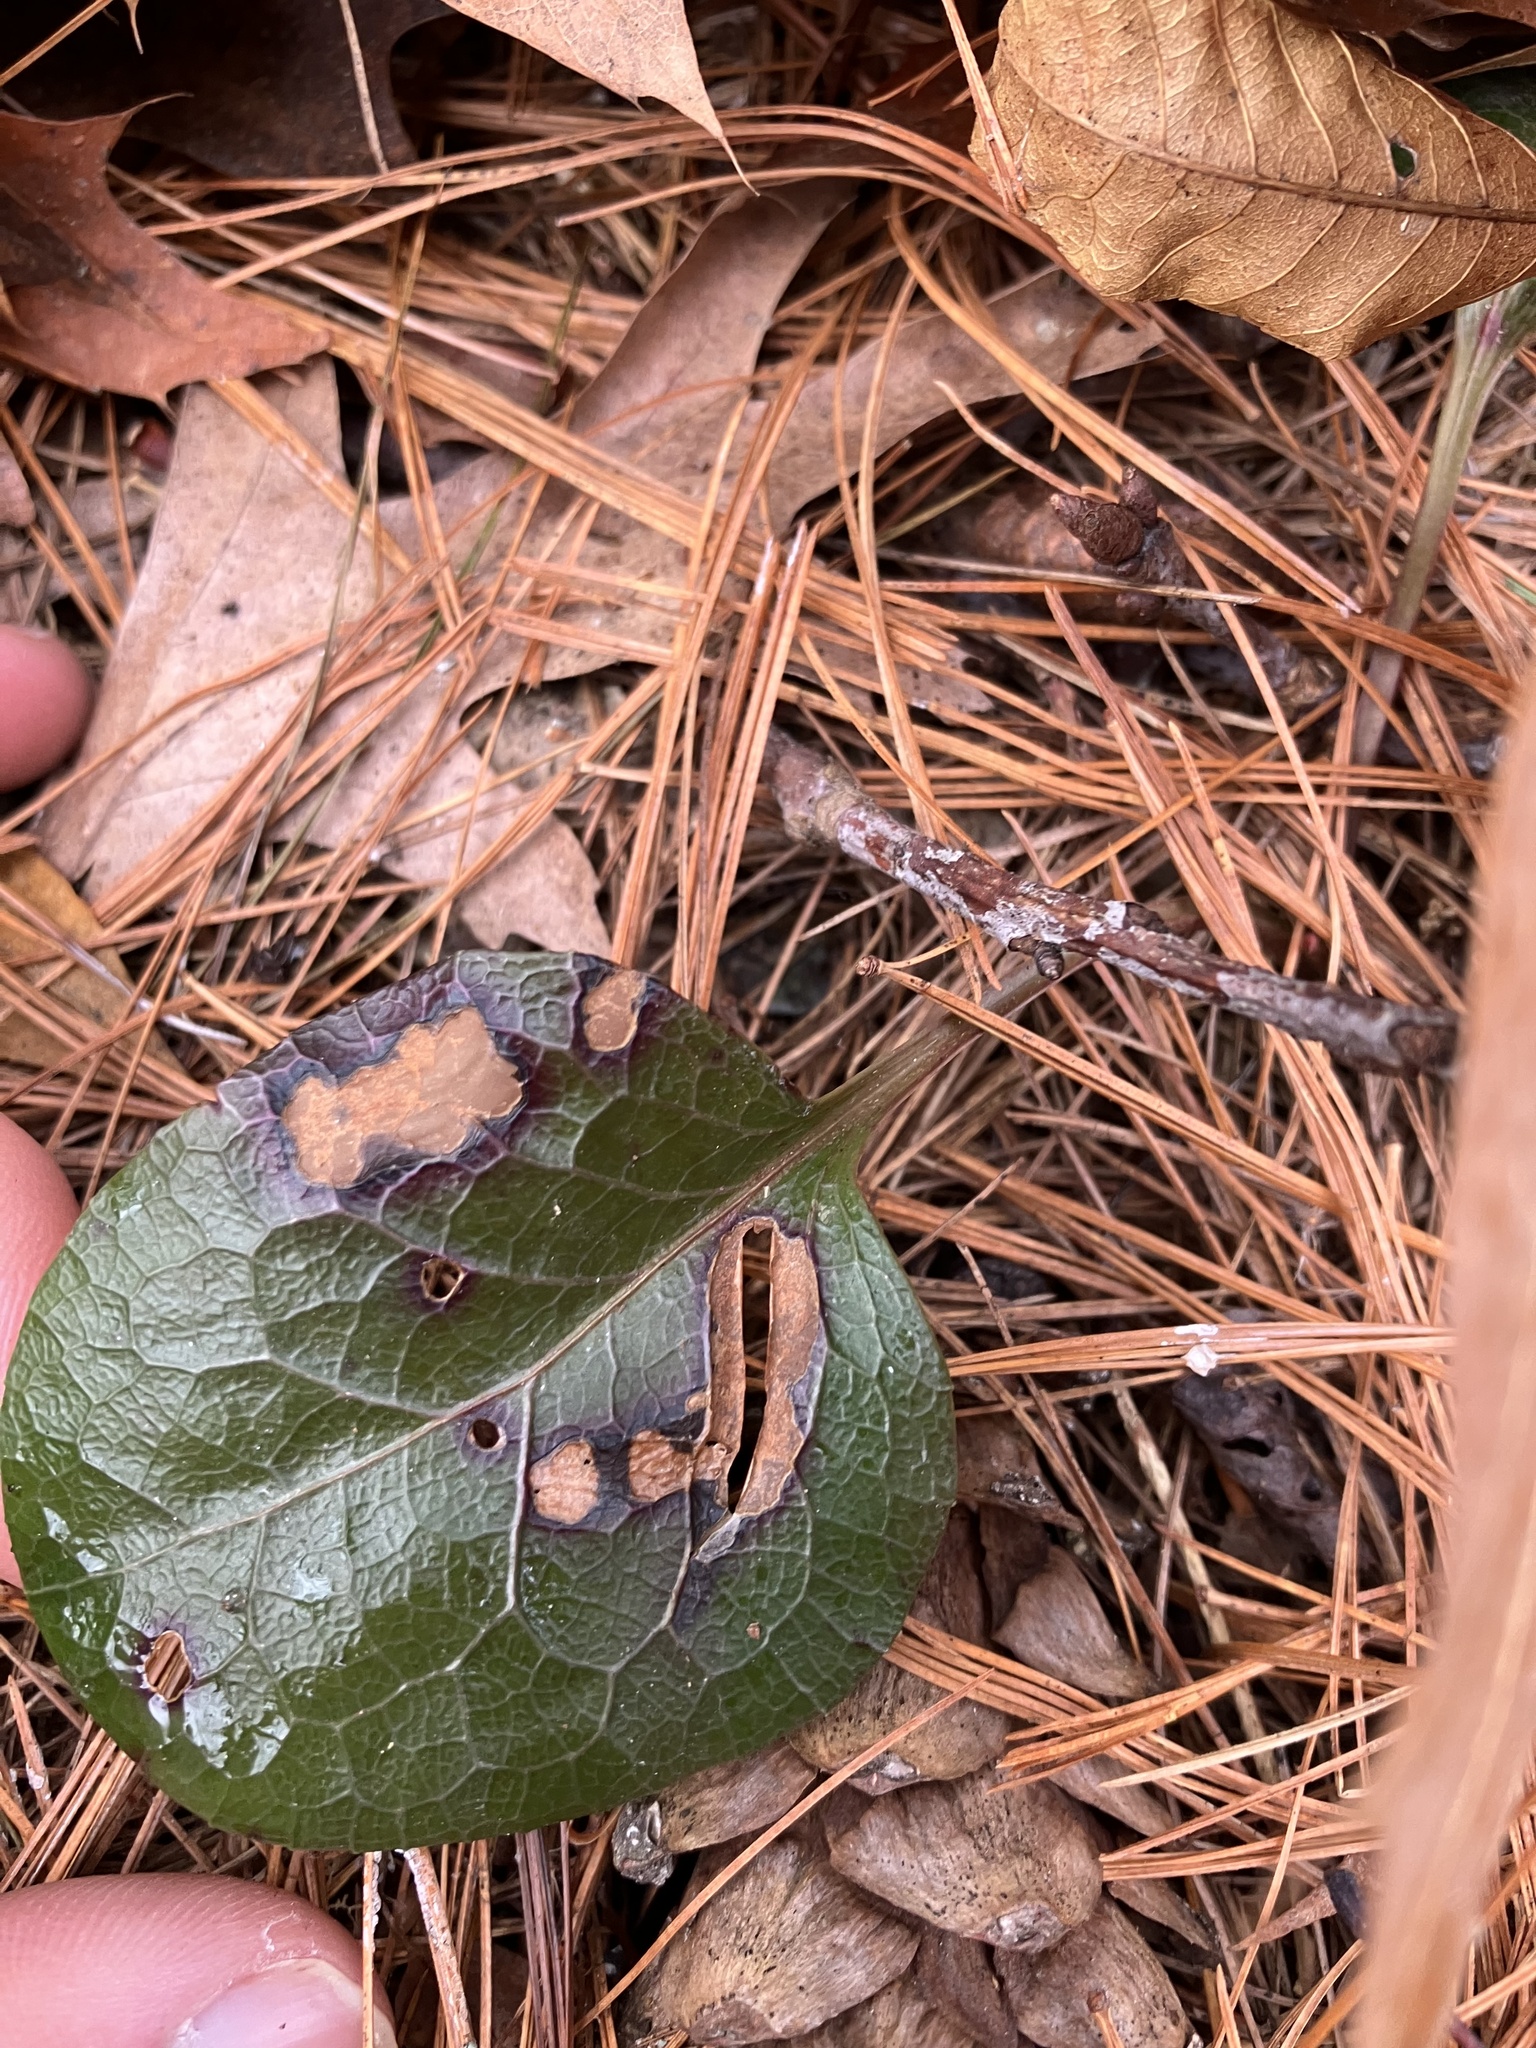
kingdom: Plantae
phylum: Tracheophyta
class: Magnoliopsida
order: Ericales
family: Ericaceae
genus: Pyrola
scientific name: Pyrola americana
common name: American wintergreen
